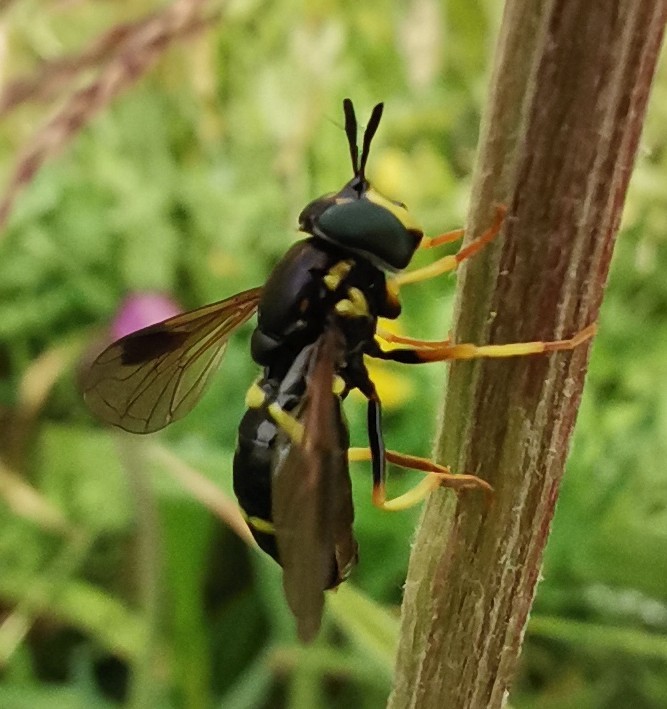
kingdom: Animalia
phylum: Arthropoda
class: Insecta
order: Diptera
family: Syrphidae
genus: Chrysotoxum
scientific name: Chrysotoxum bicincta
